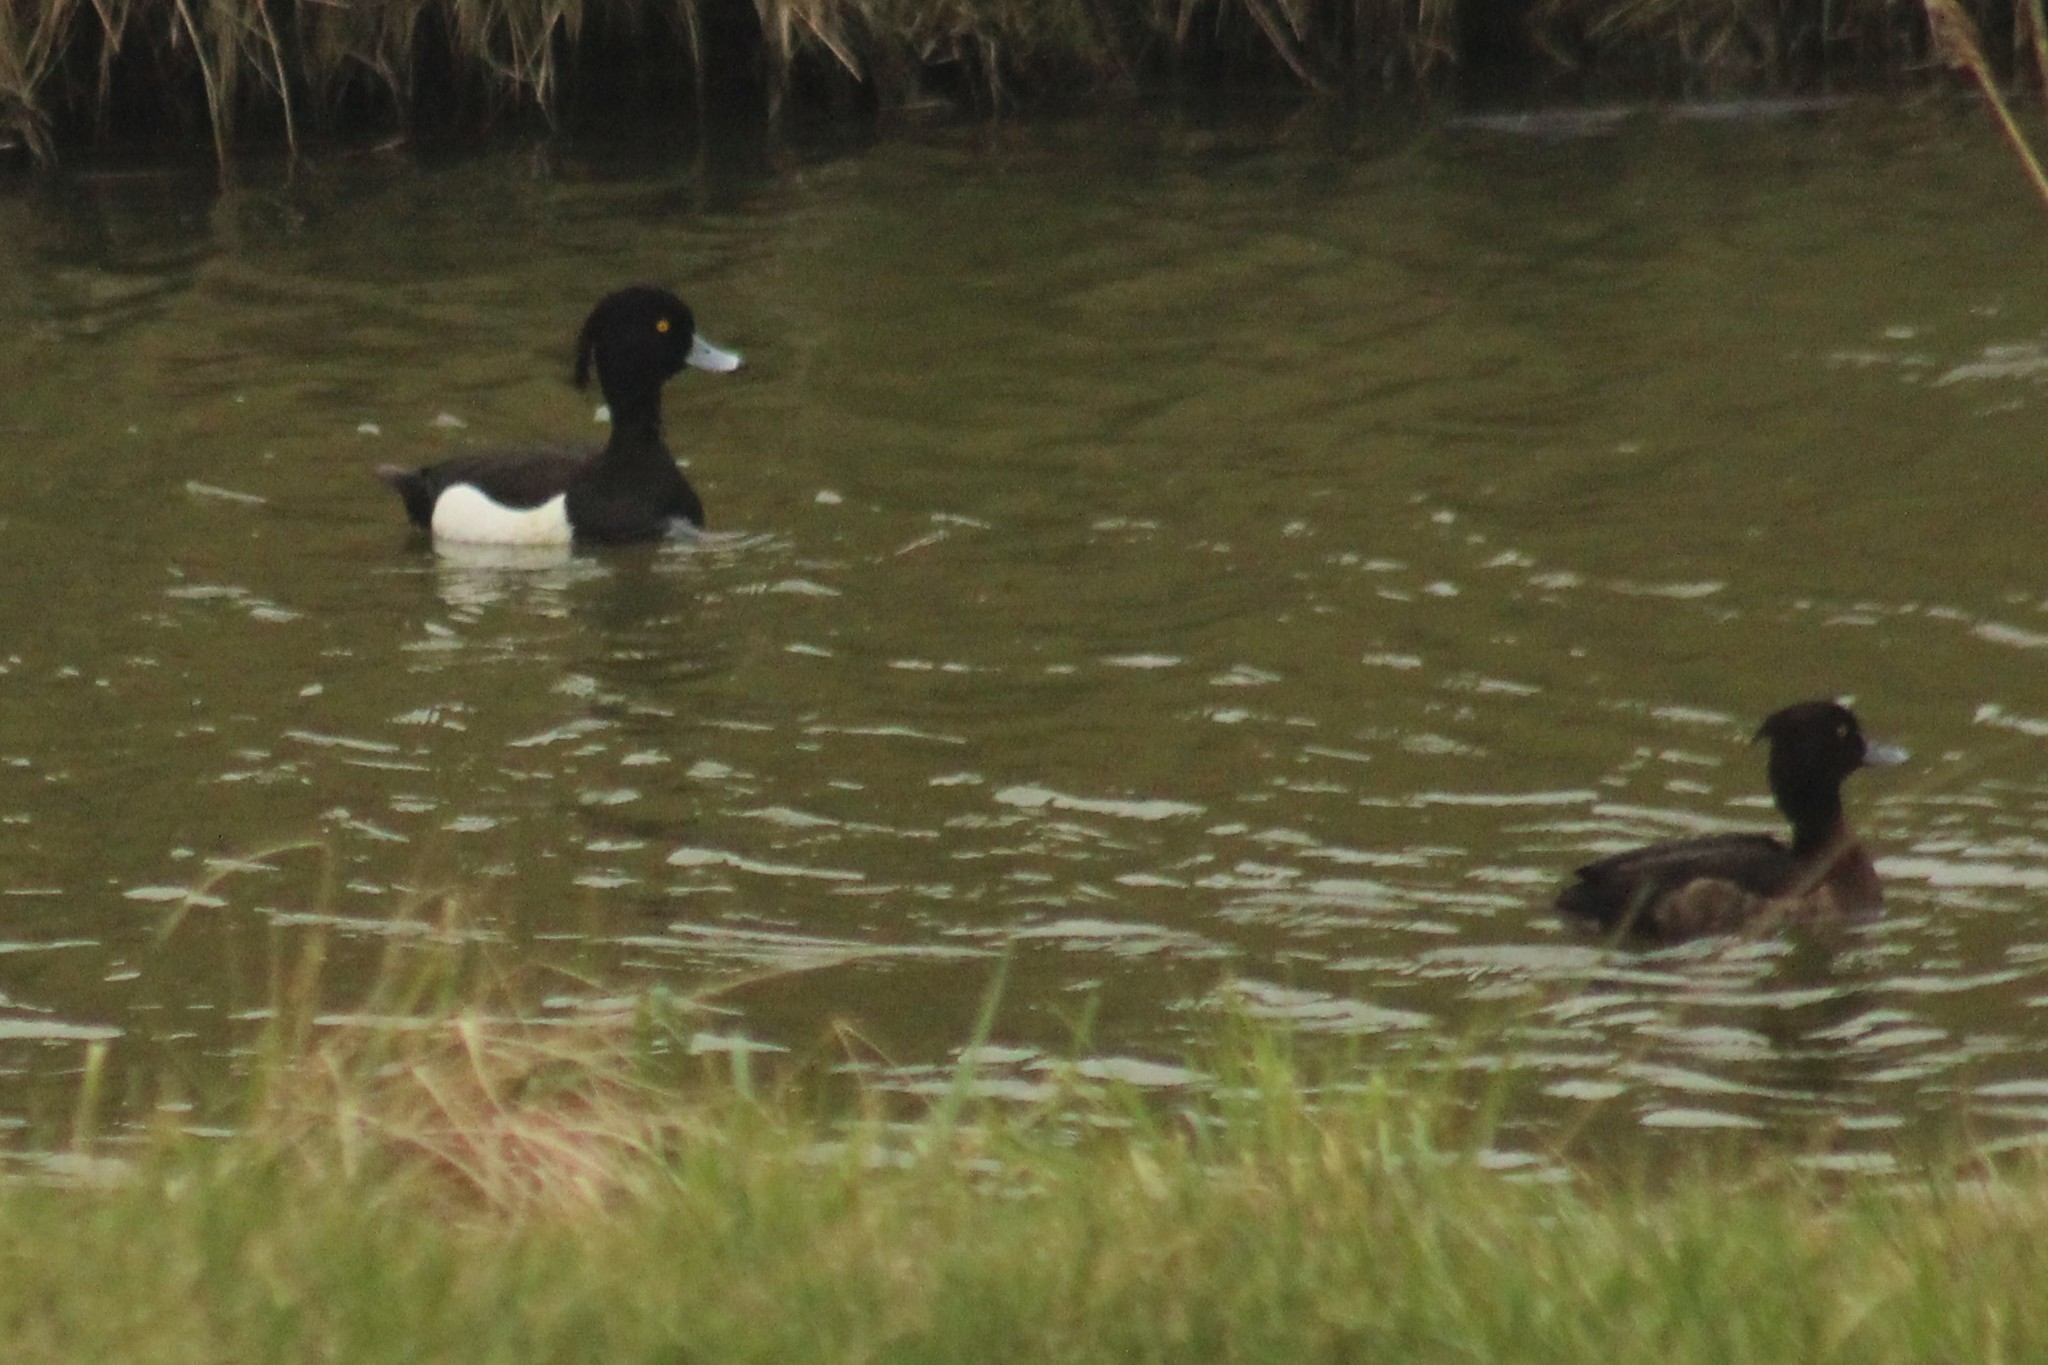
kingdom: Animalia
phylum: Chordata
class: Aves
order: Anseriformes
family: Anatidae
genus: Aythya
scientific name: Aythya fuligula
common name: Tufted duck
